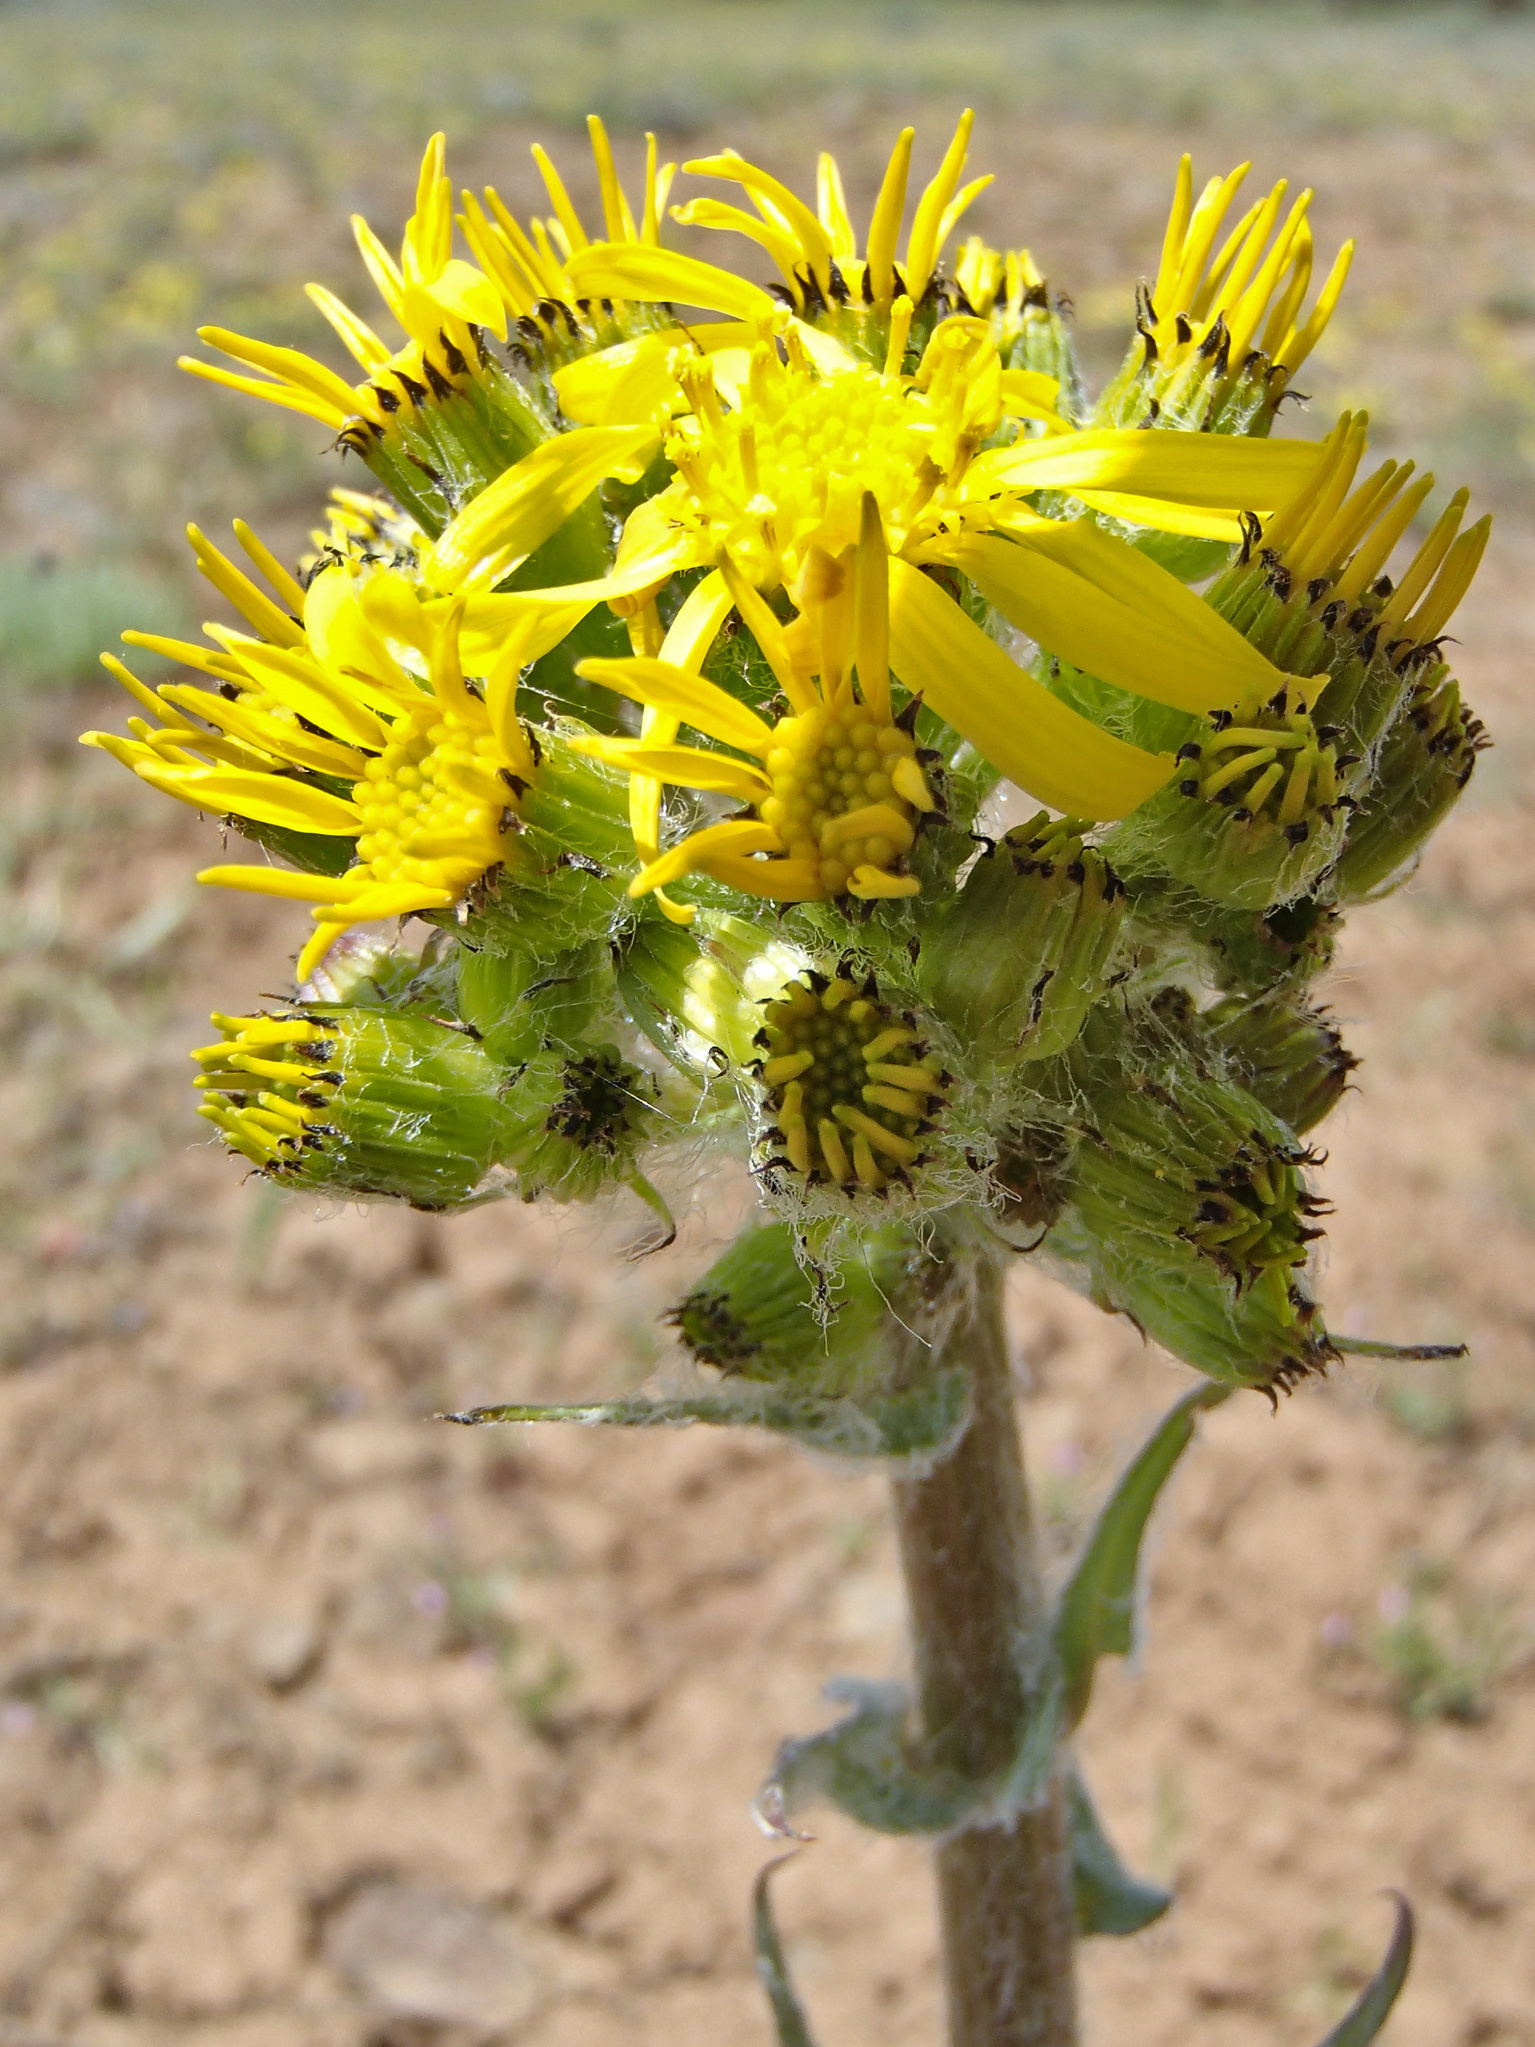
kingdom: Plantae
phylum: Tracheophyta
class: Magnoliopsida
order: Asterales
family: Asteraceae
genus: Senecio
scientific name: Senecio integerrimus
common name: Gaugeplant
